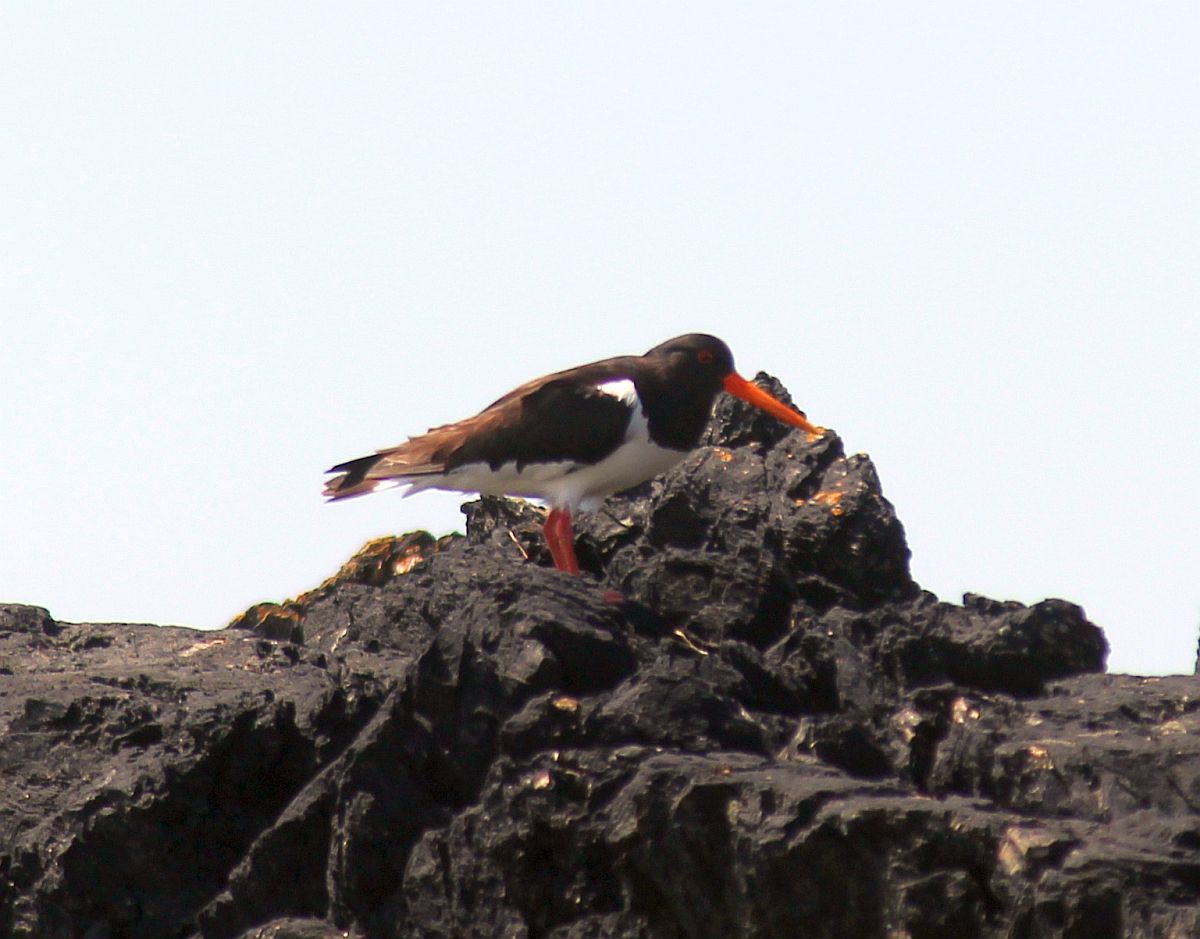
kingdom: Animalia
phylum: Chordata
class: Aves
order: Charadriiformes
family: Haematopodidae
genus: Haematopus
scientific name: Haematopus ostralegus
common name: Eurasian oystercatcher
